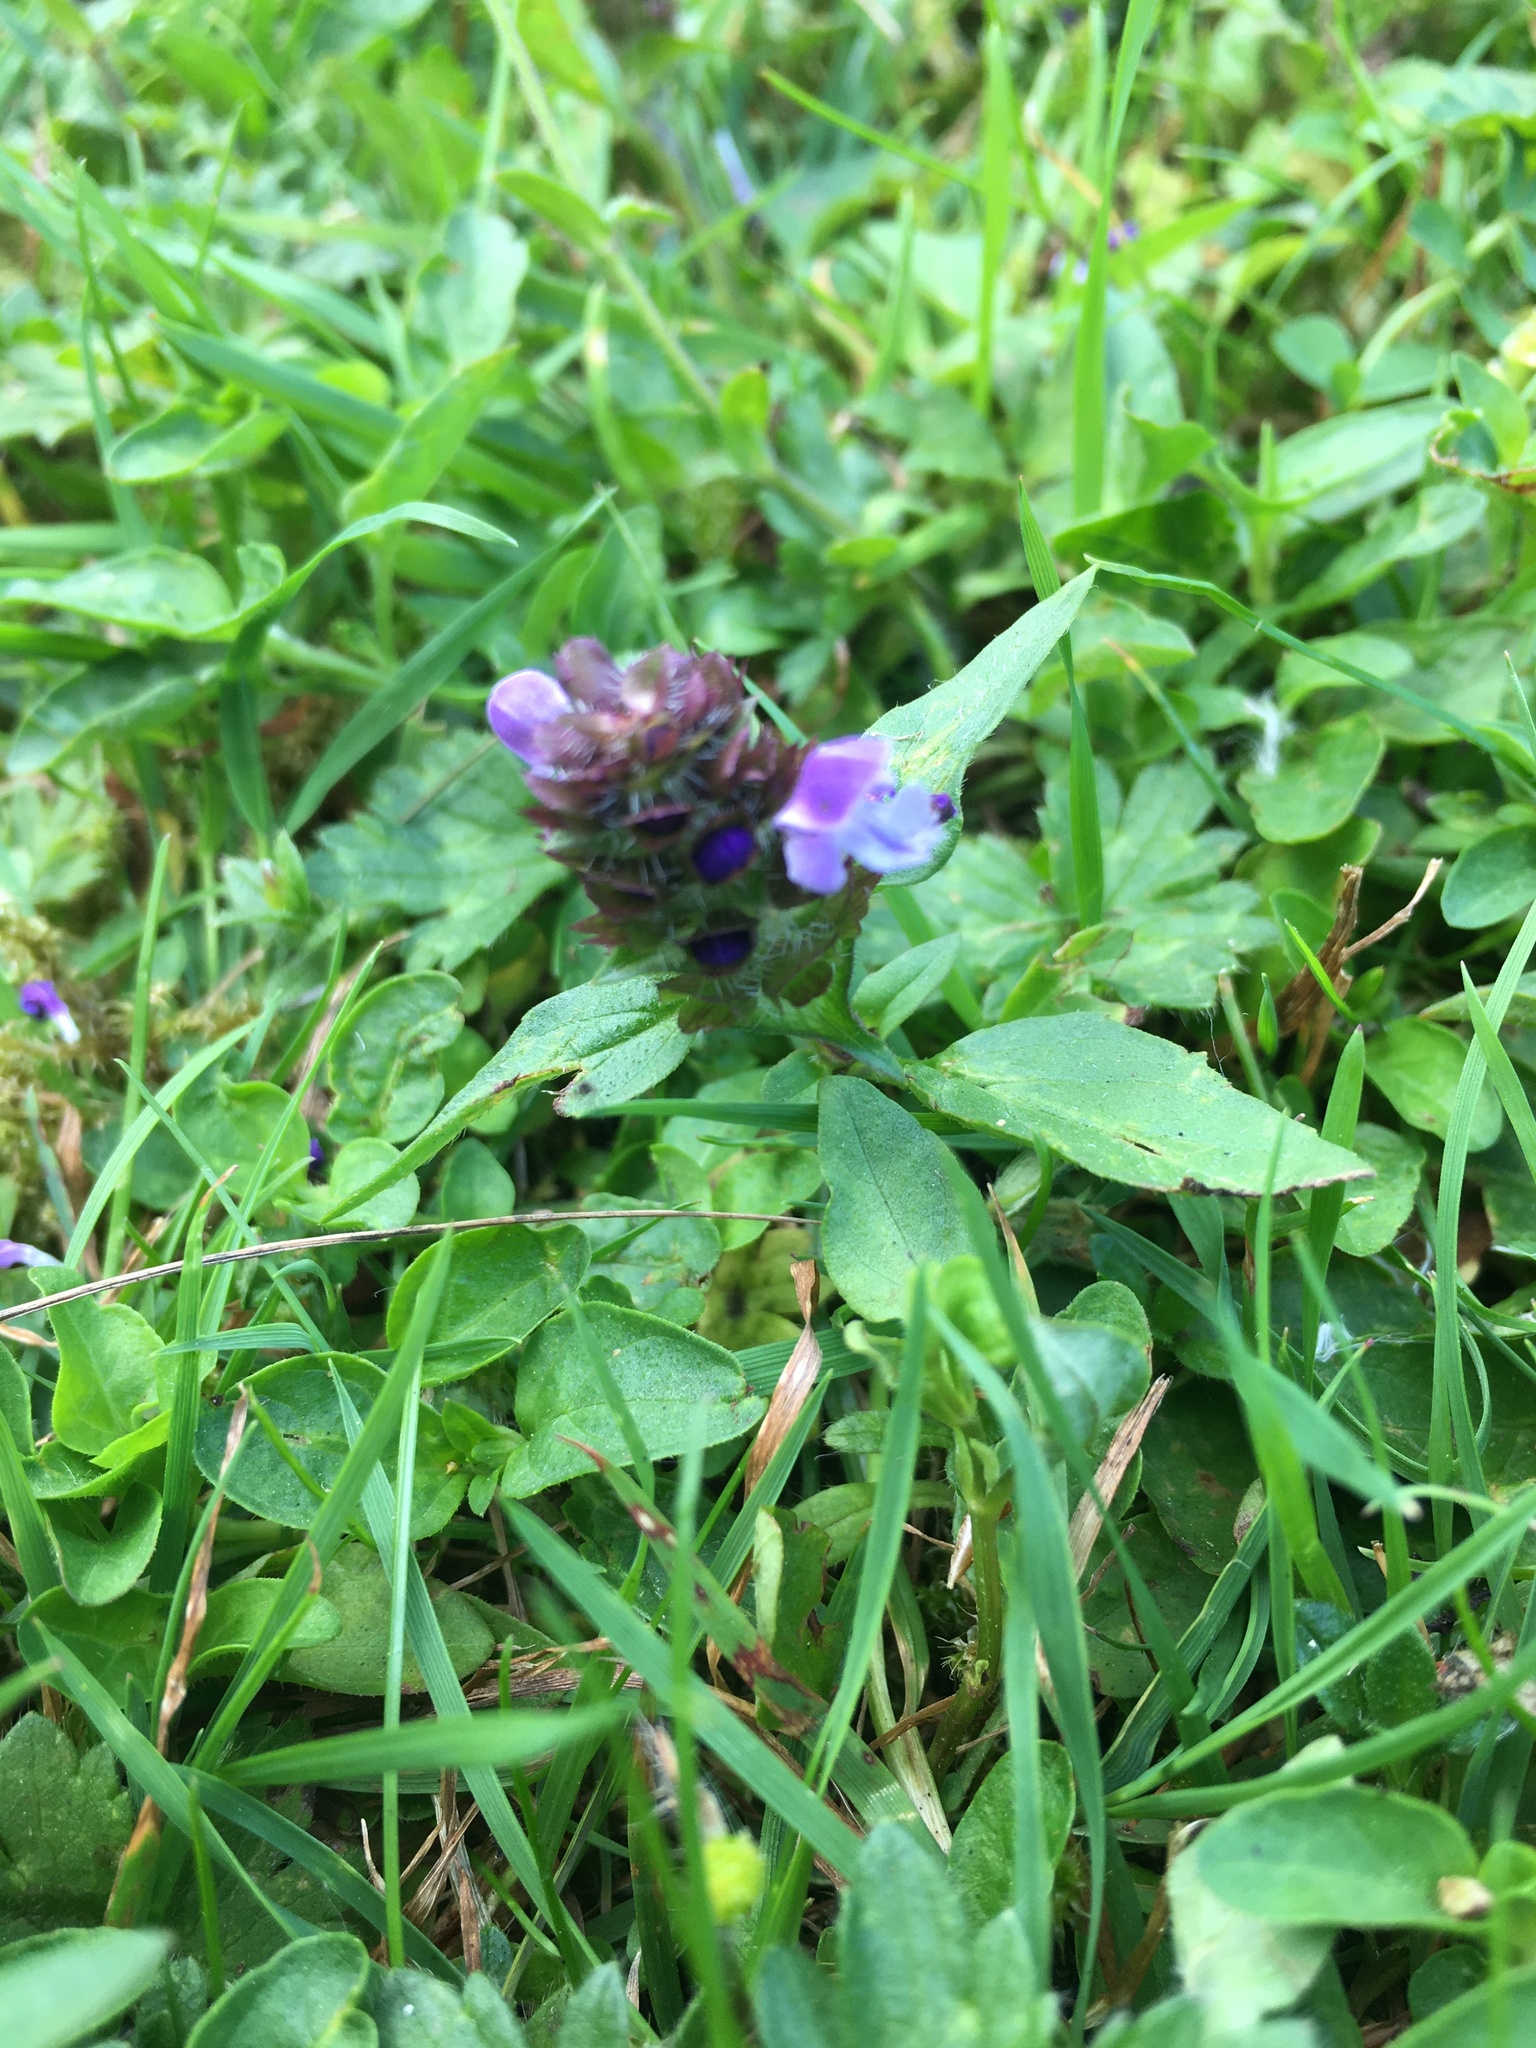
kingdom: Plantae
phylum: Tracheophyta
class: Magnoliopsida
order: Lamiales
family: Lamiaceae
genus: Prunella
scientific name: Prunella vulgaris
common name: Heal-all
